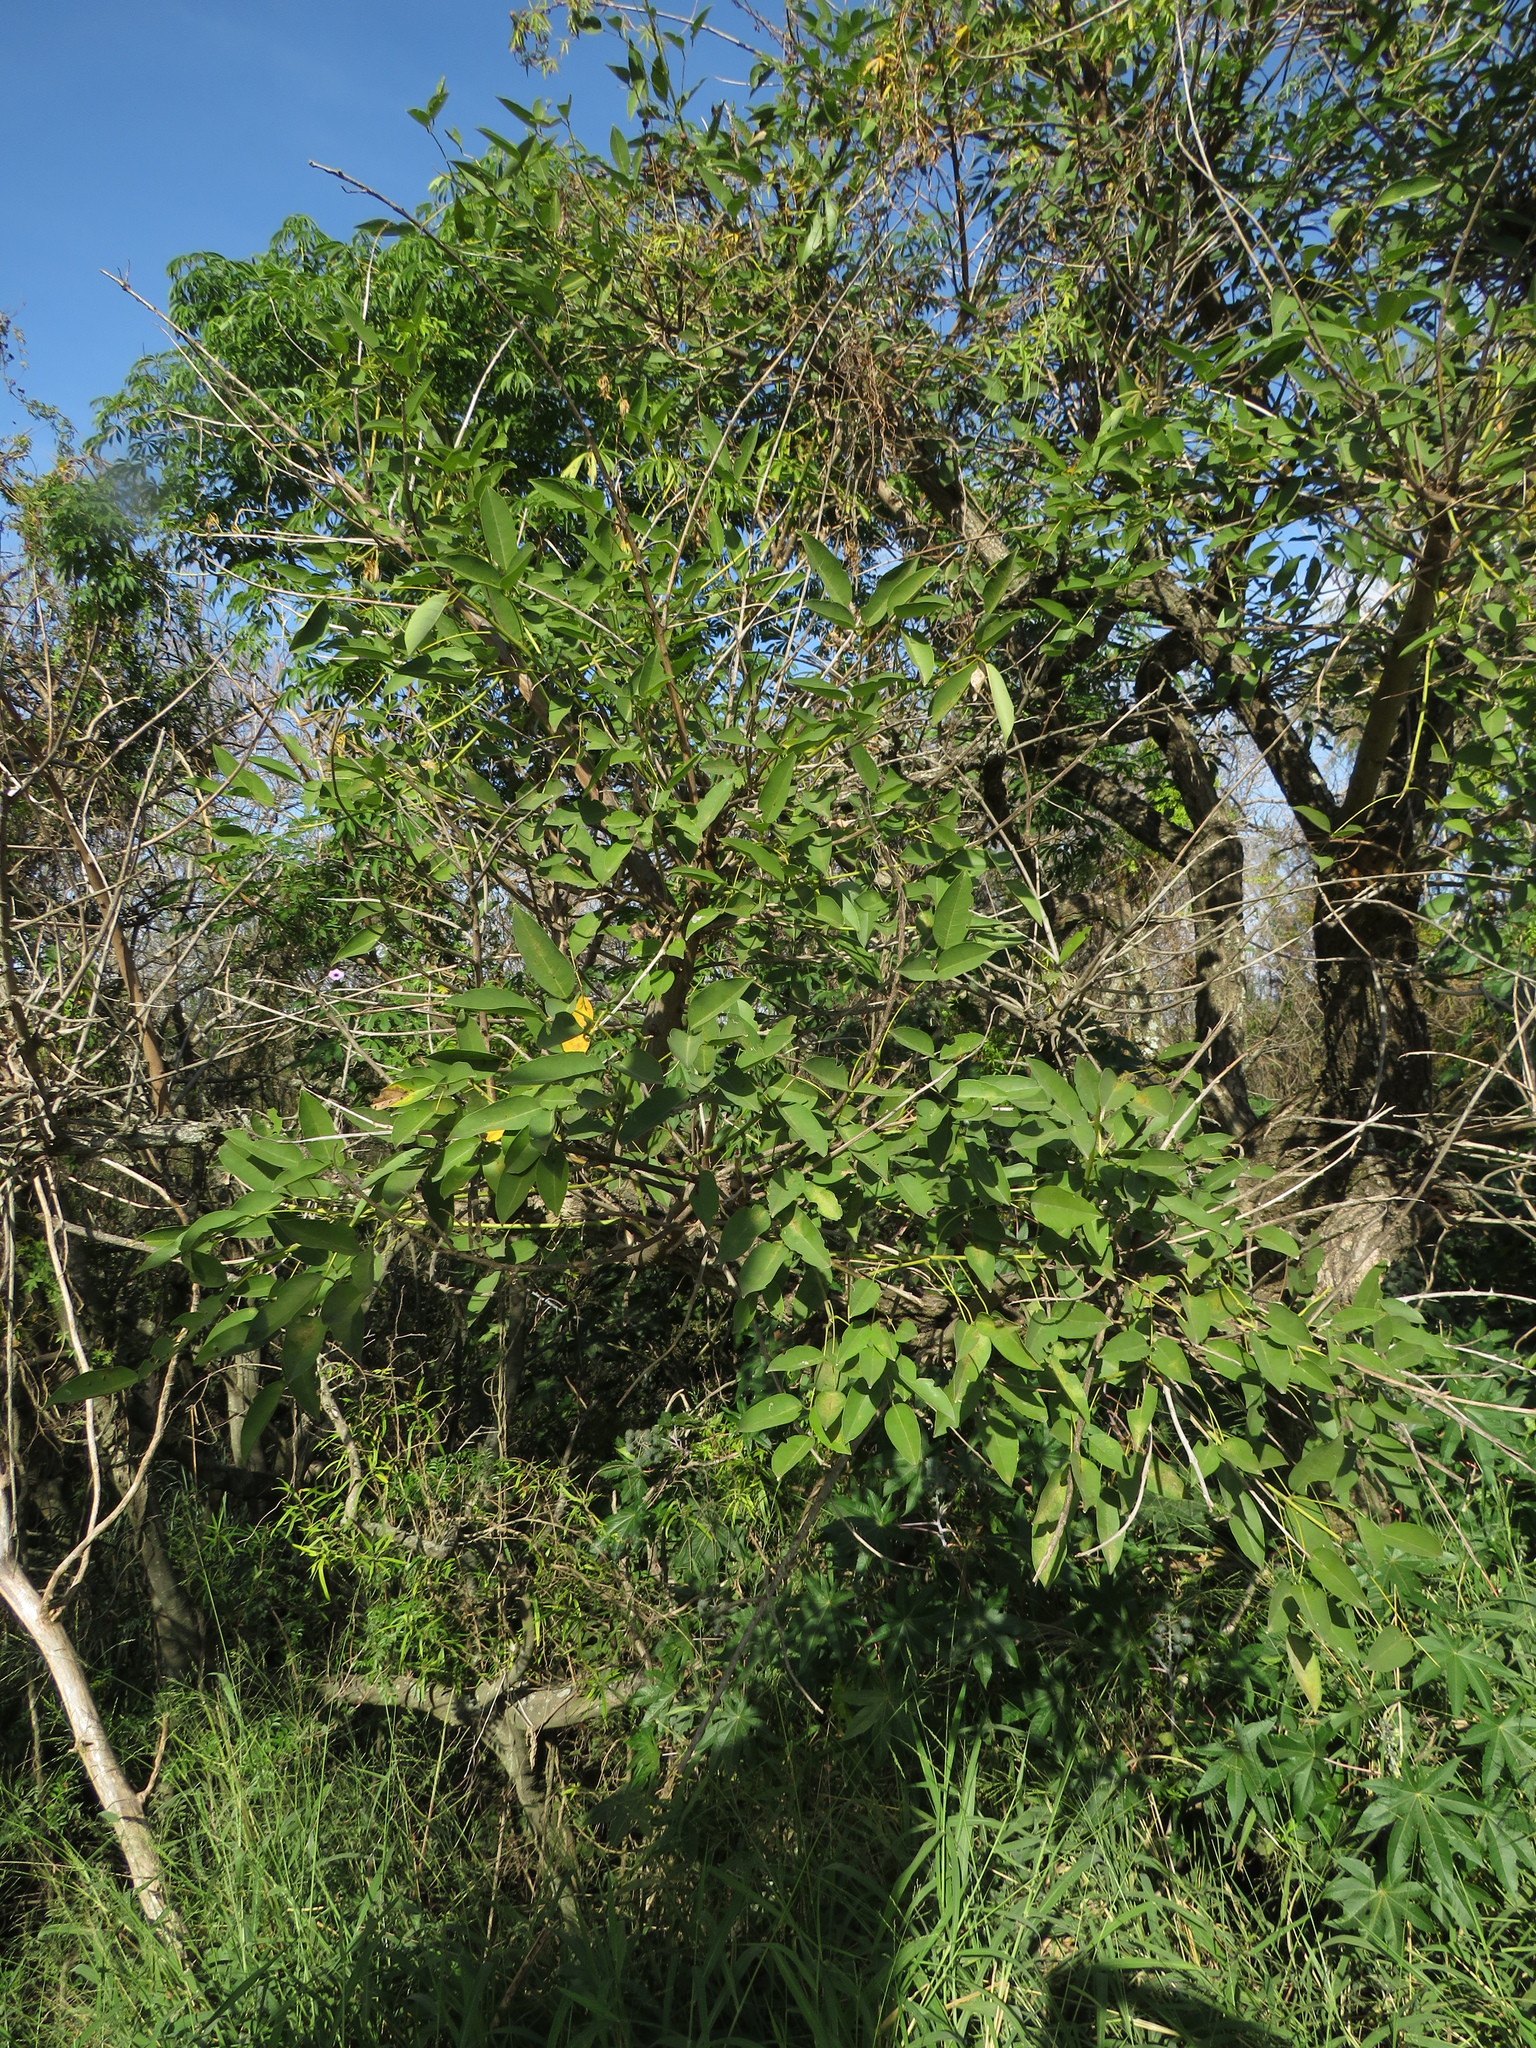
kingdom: Plantae
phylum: Tracheophyta
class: Magnoliopsida
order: Fabales
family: Fabaceae
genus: Erythrina
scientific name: Erythrina crista-galli
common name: Cockspur coral tree
